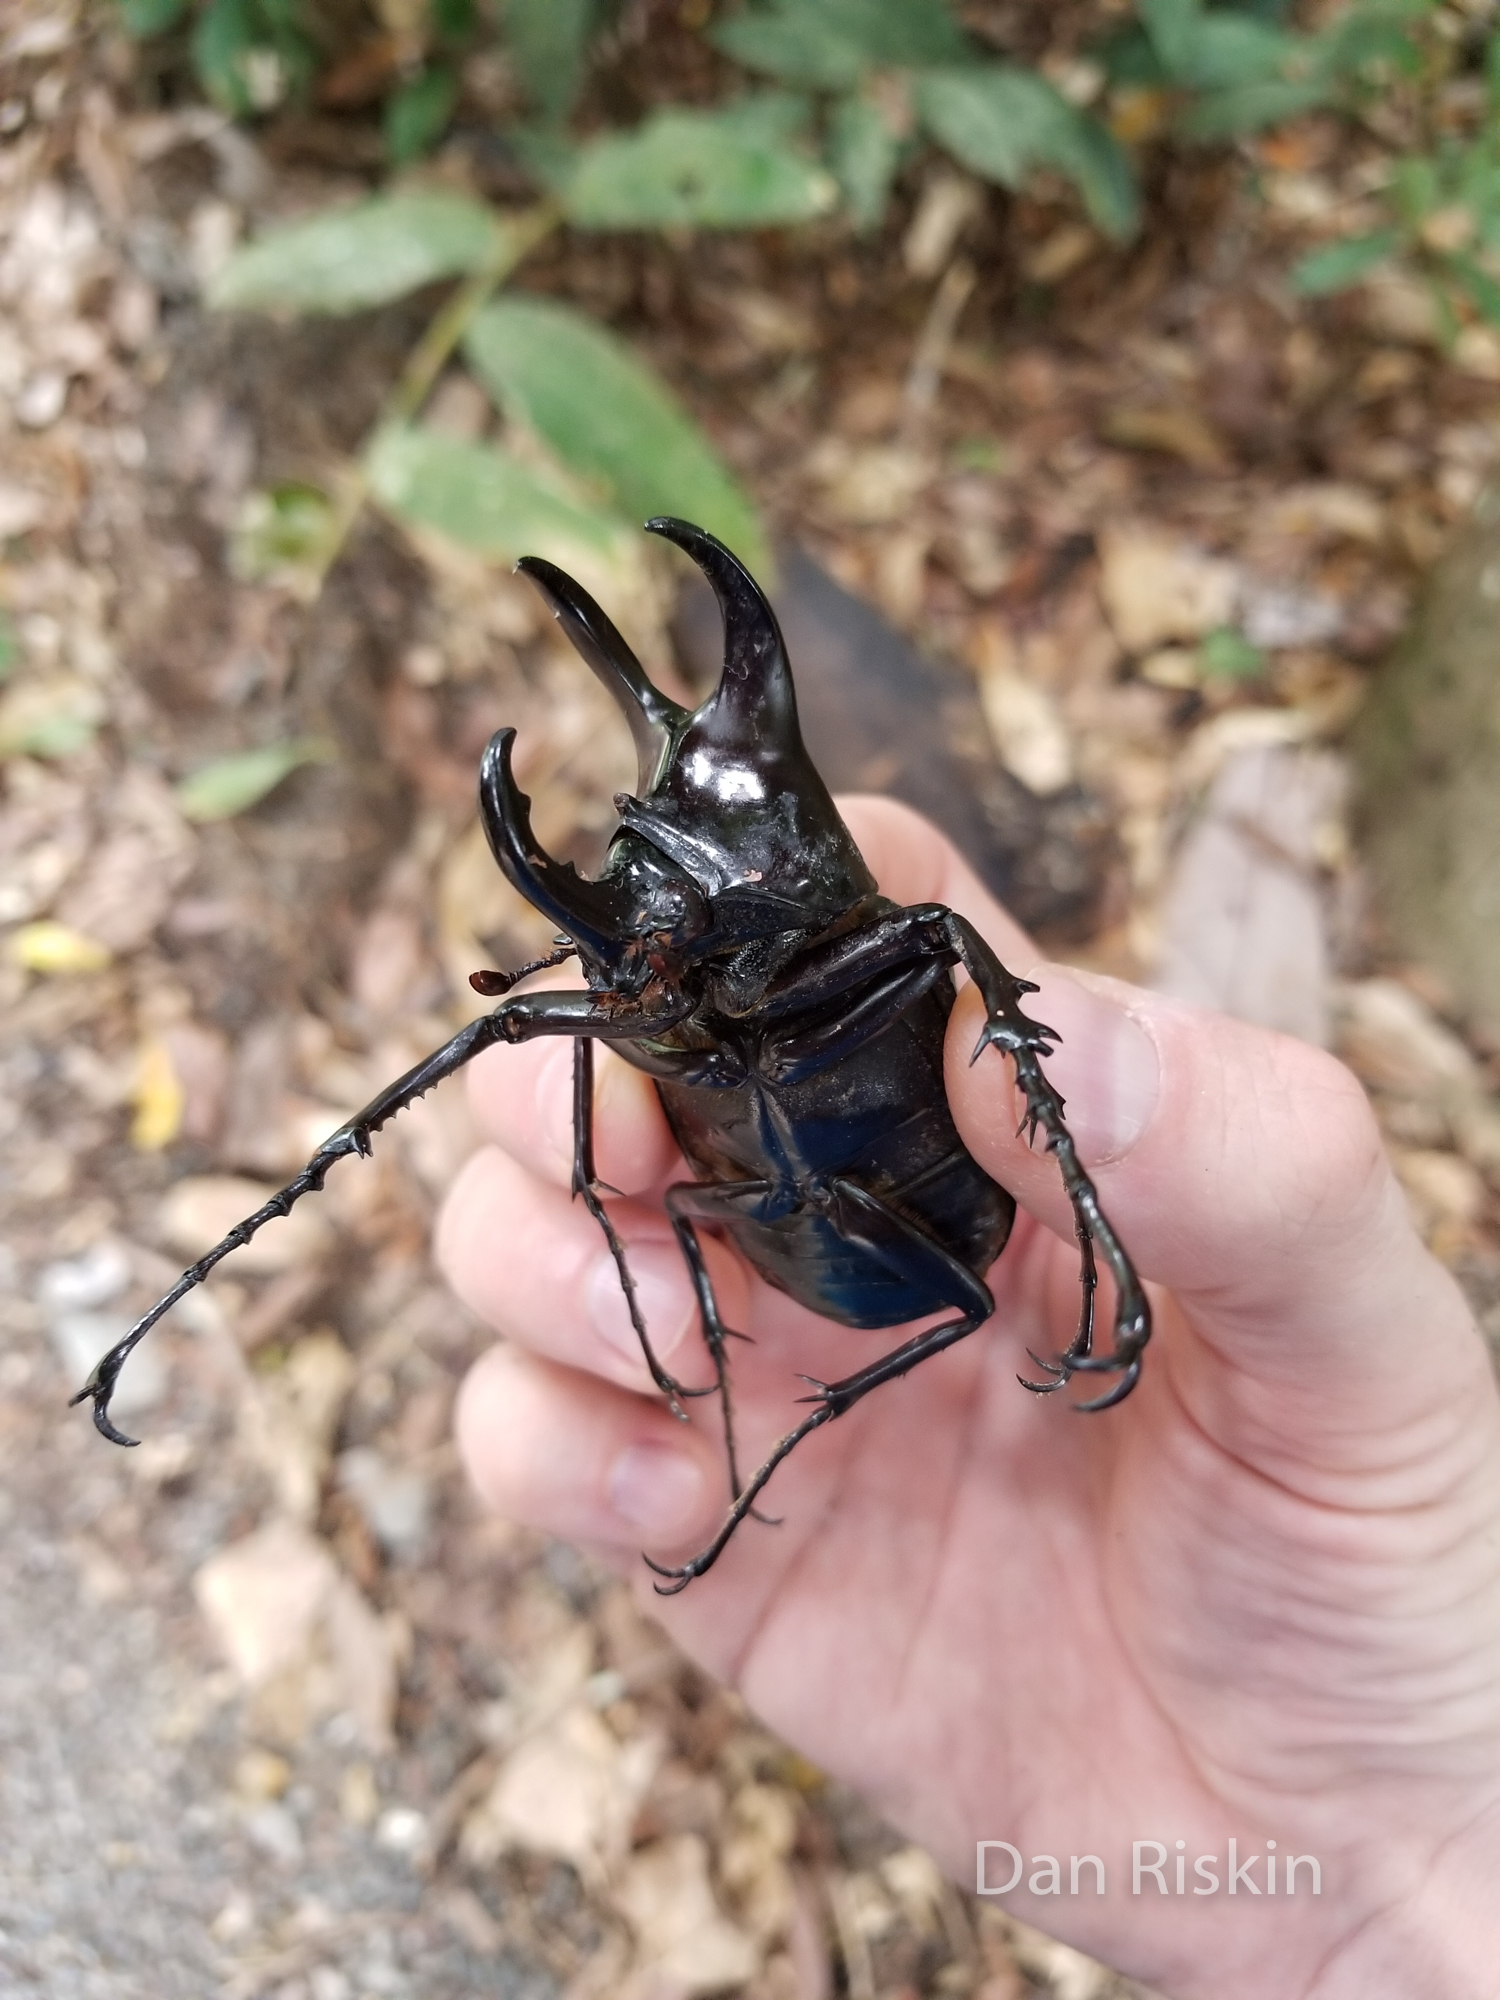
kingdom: Animalia
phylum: Arthropoda
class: Insecta
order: Coleoptera
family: Scarabaeidae
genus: Chalcosoma
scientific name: Chalcosoma moellenkampi
